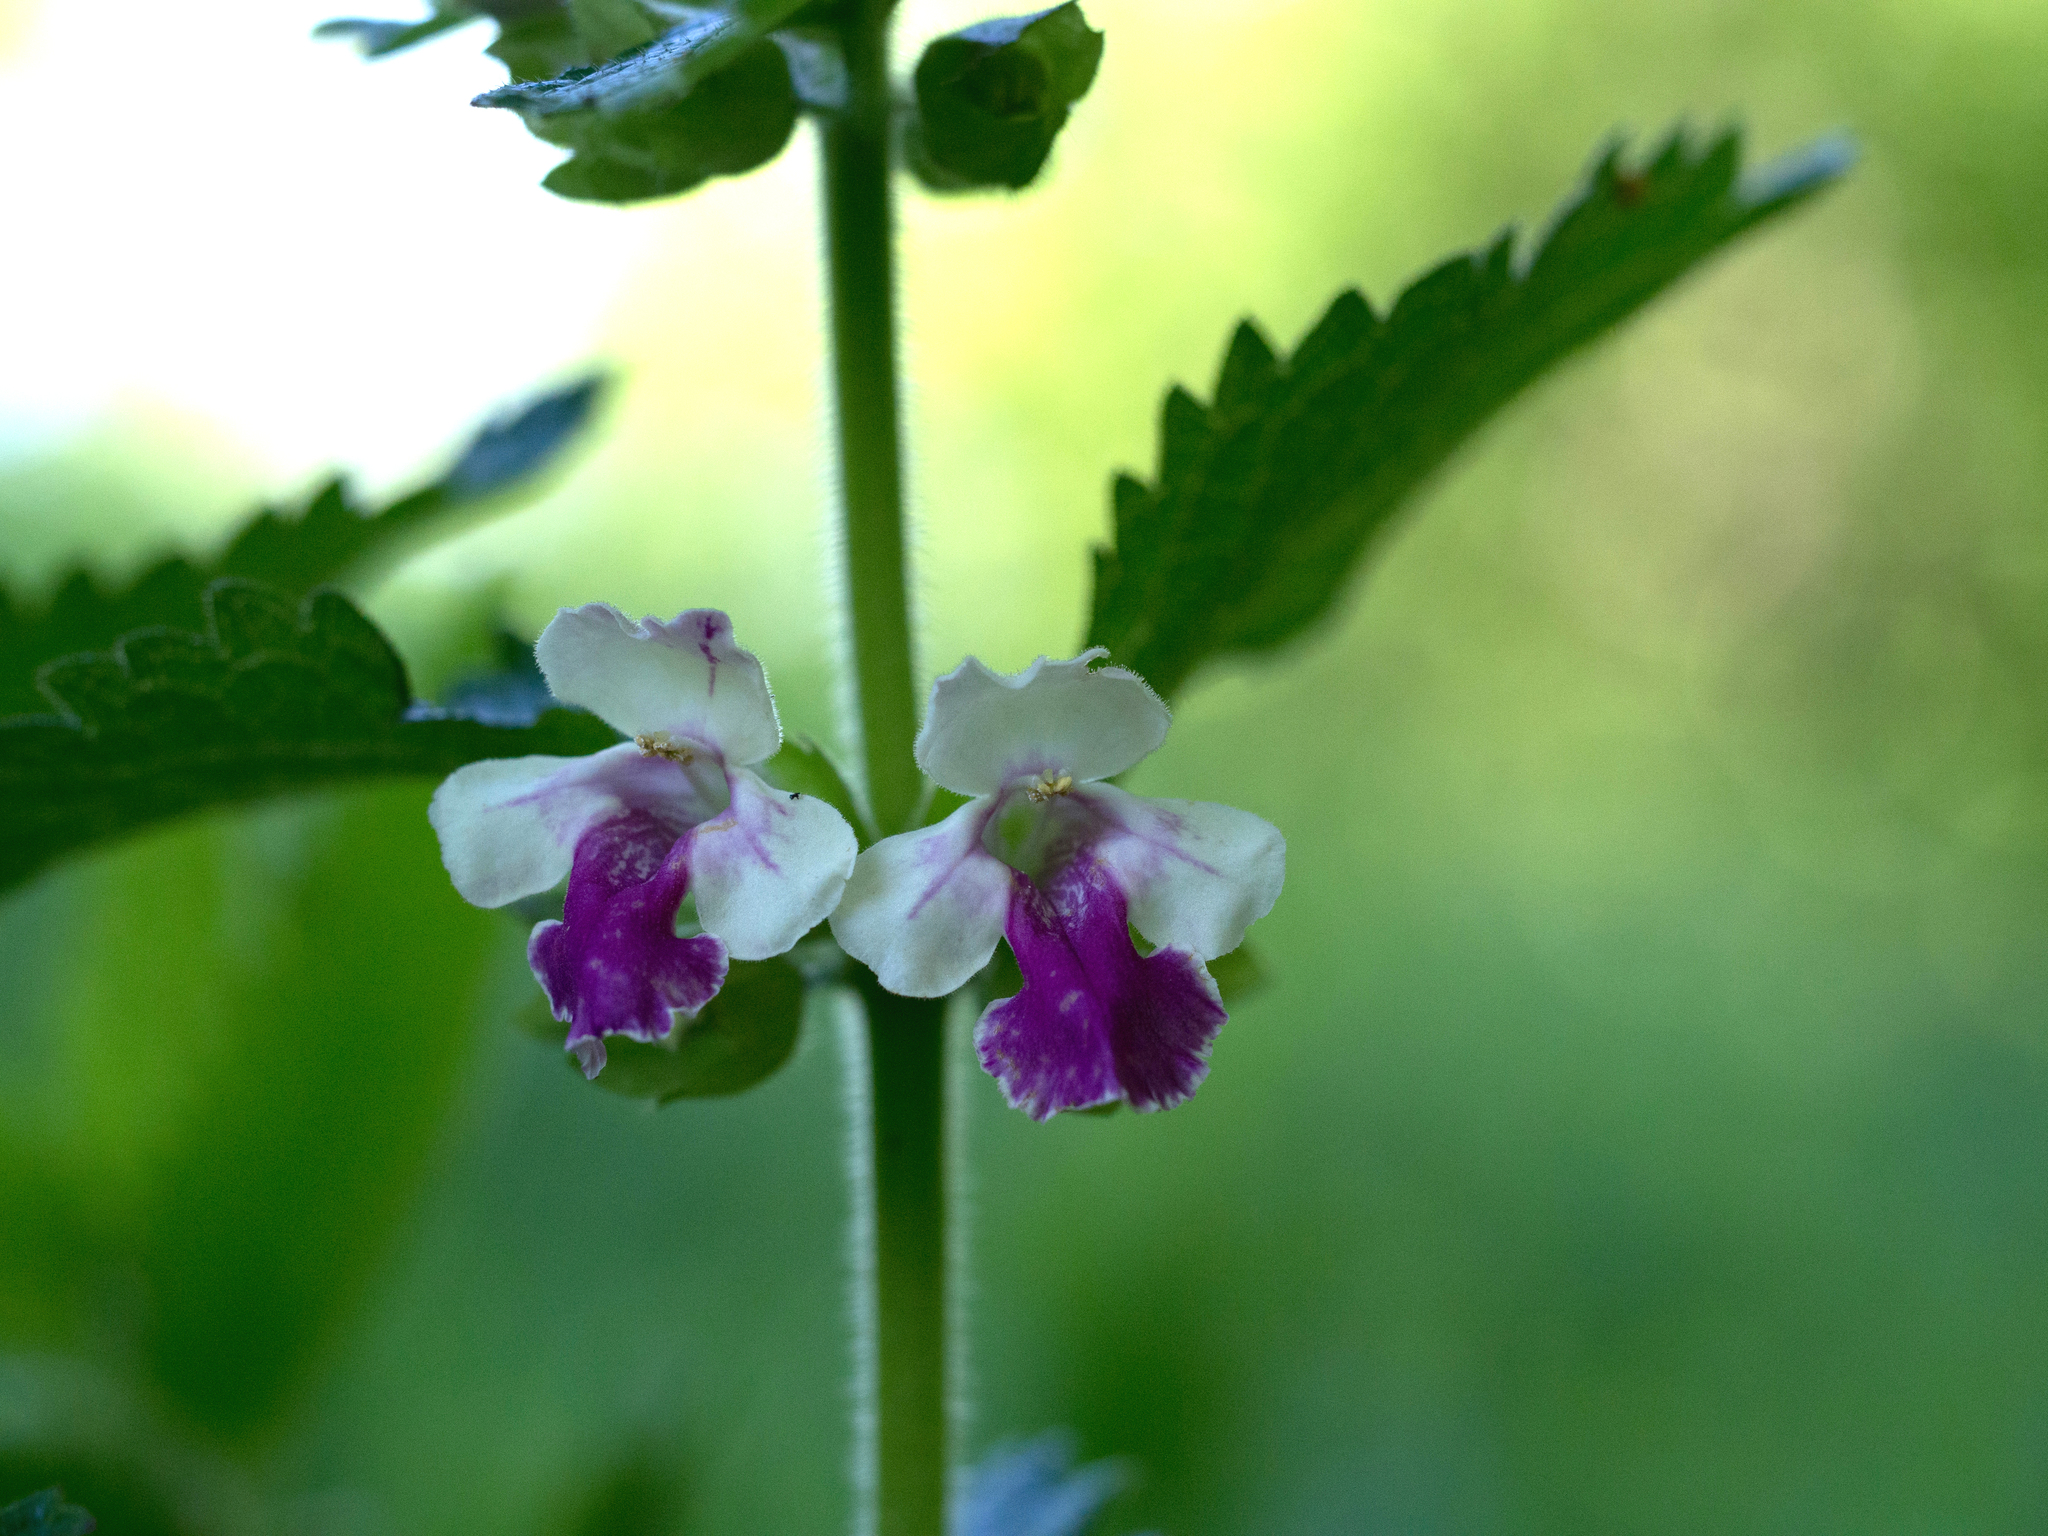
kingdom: Plantae
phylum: Tracheophyta
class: Magnoliopsida
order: Lamiales
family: Lamiaceae
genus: Melittis
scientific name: Melittis melissophyllum
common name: Bastard balm
